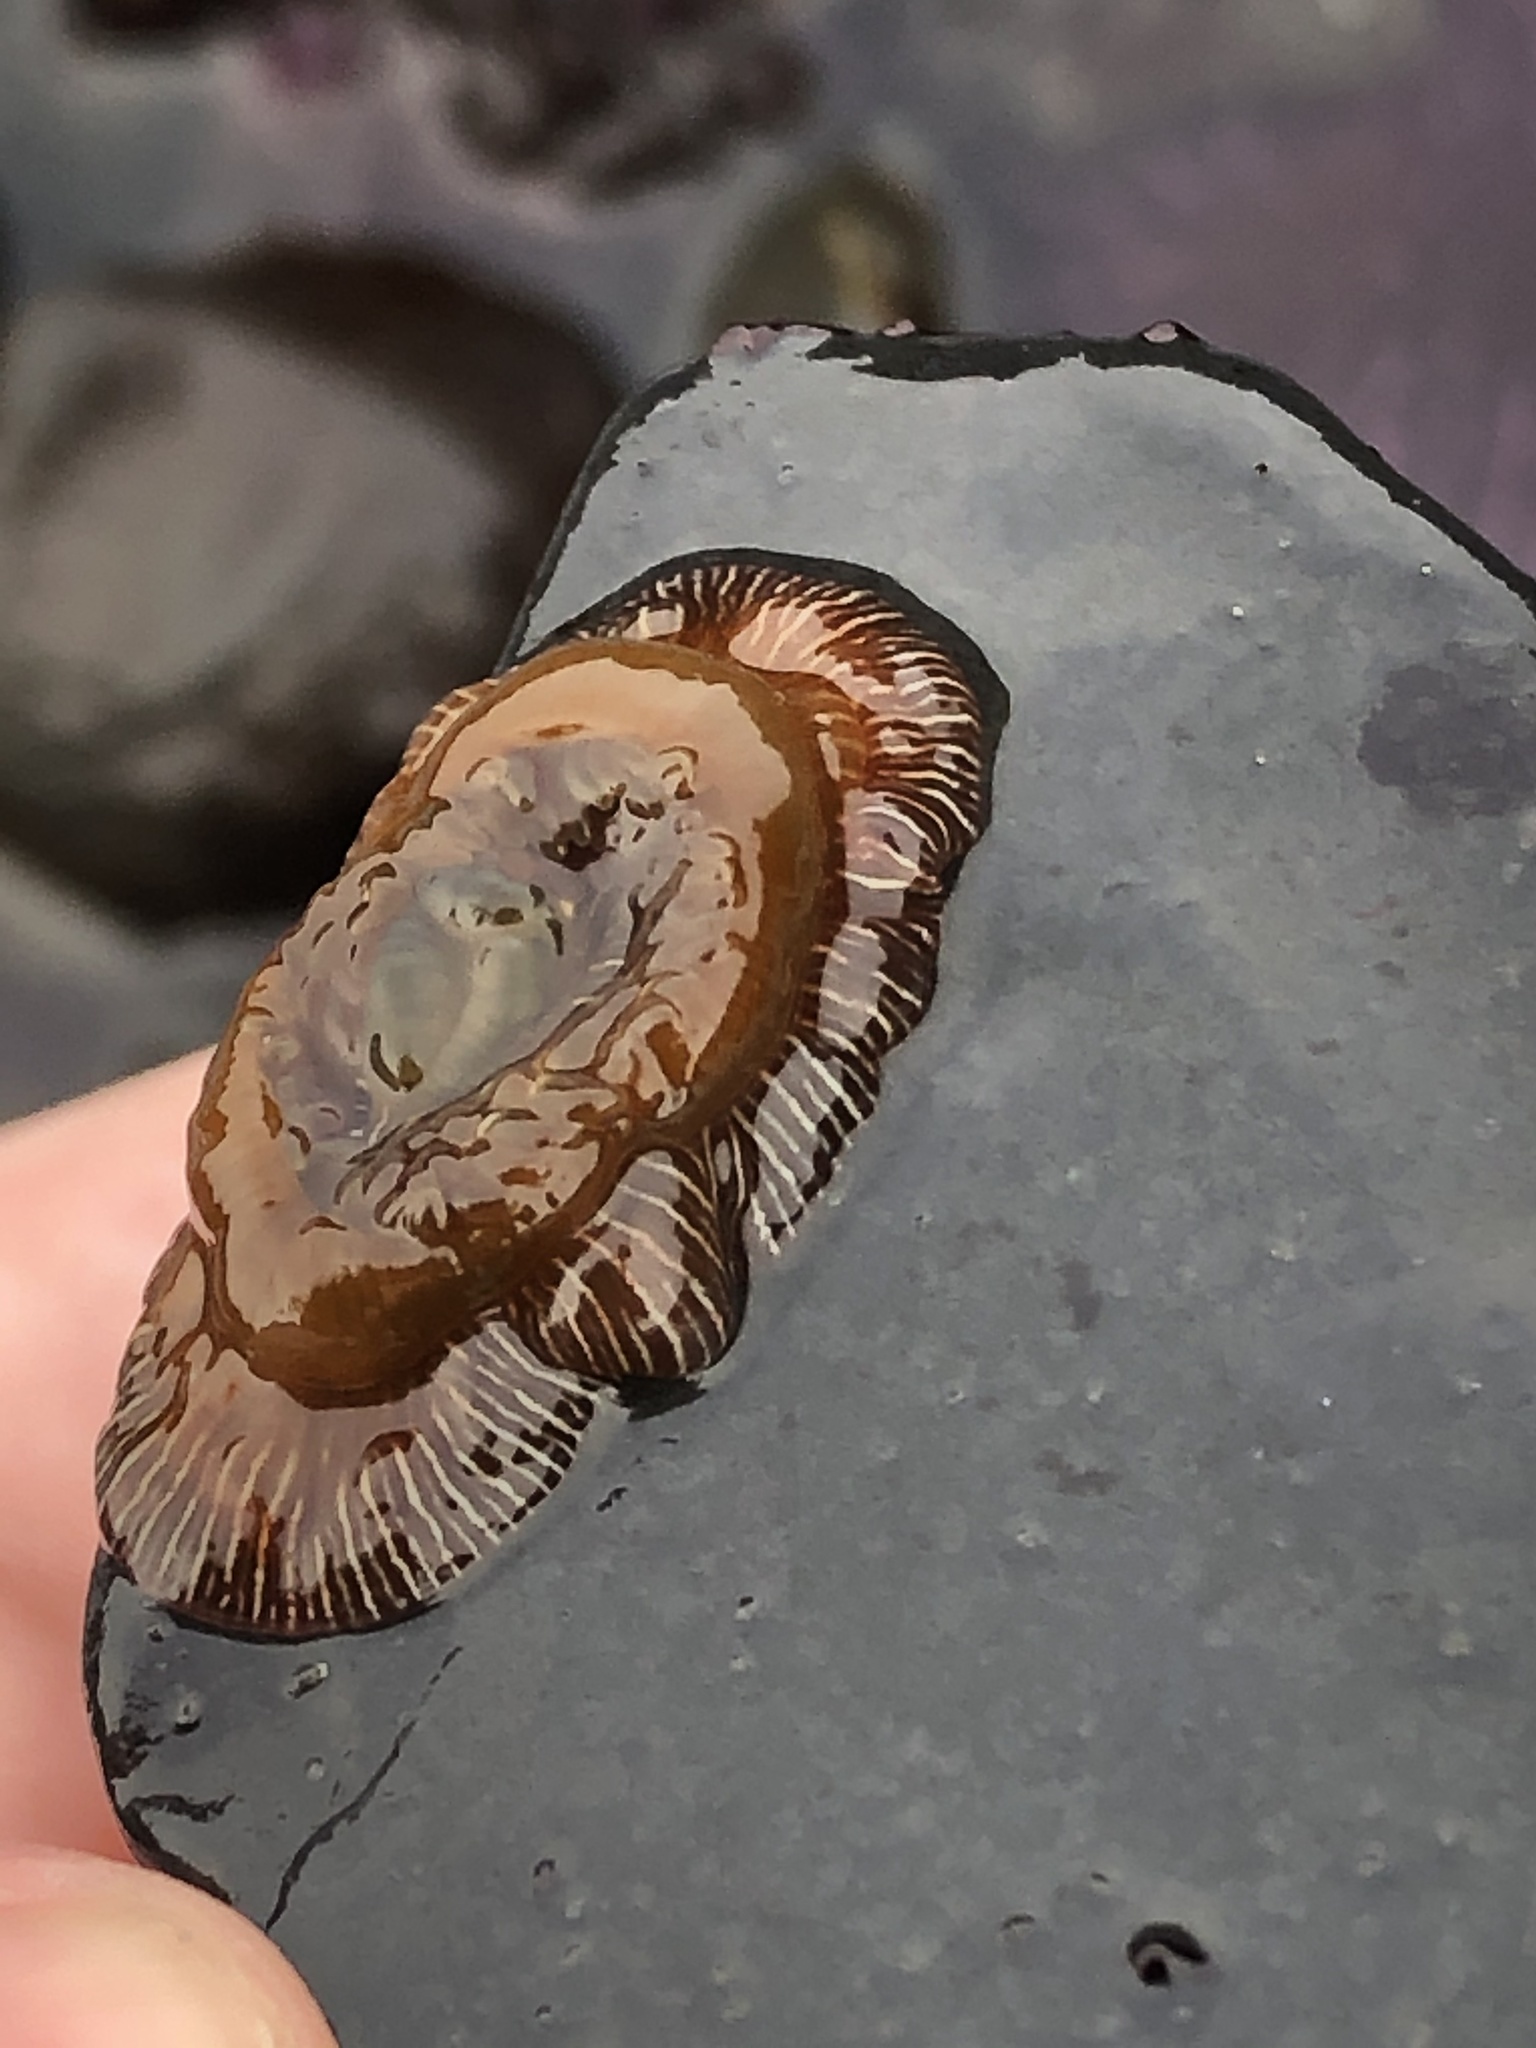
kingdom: Animalia
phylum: Cnidaria
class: Anthozoa
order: Actiniaria
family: Actiniidae
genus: Epiactis
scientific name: Epiactis prolifera
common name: Brooding anemone
